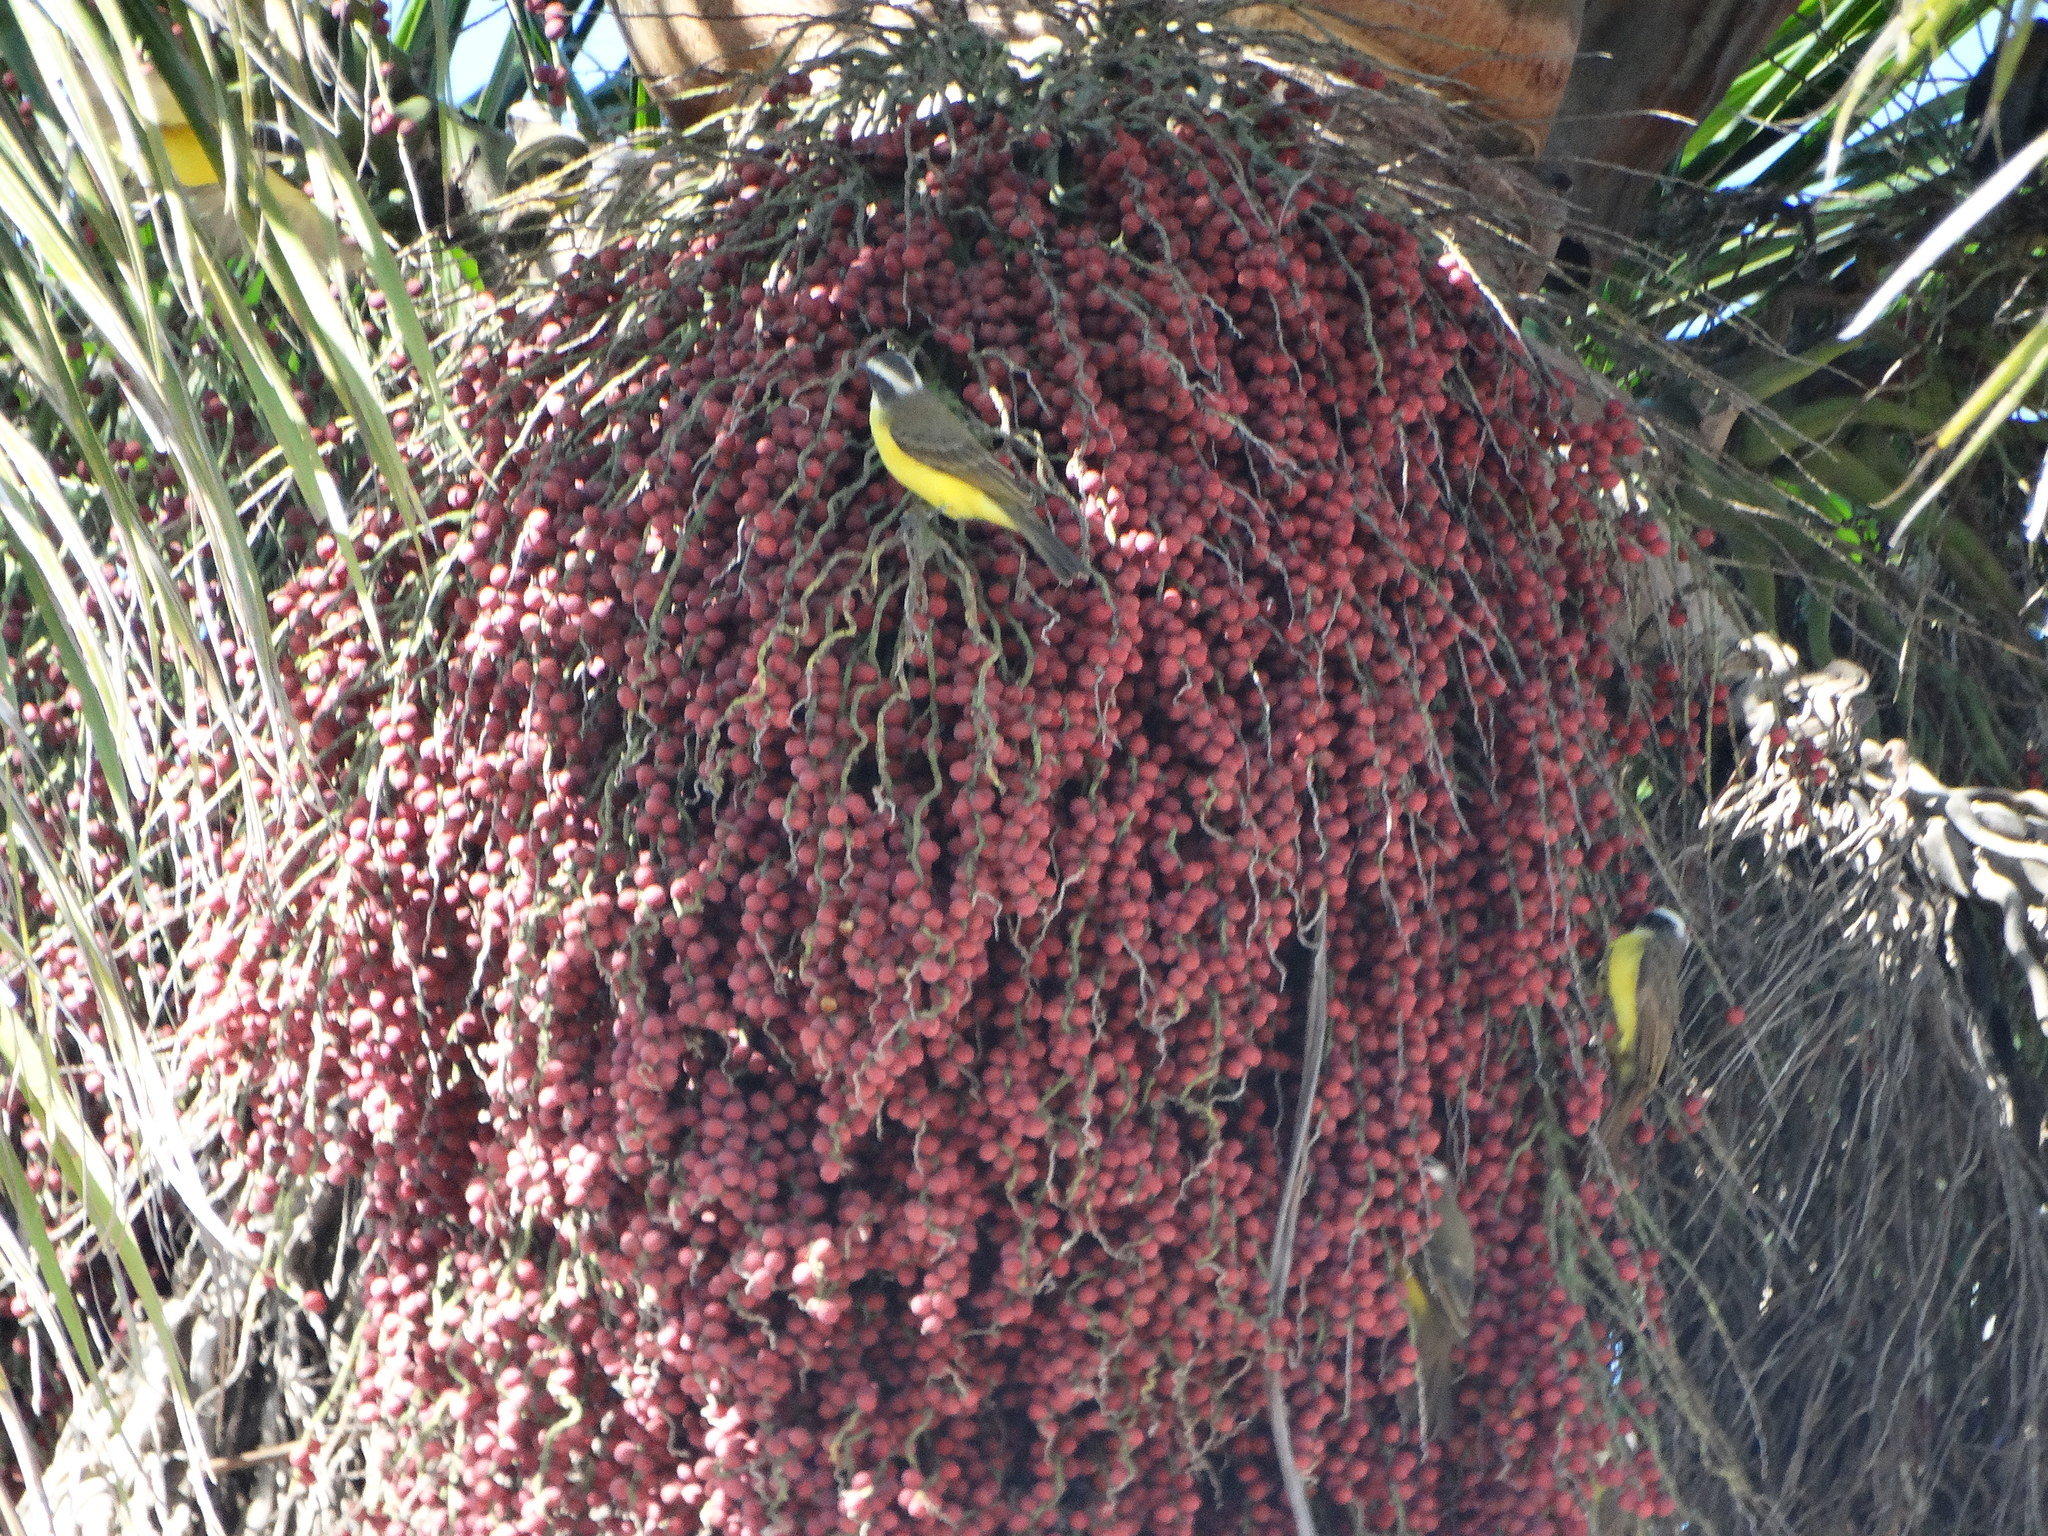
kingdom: Animalia
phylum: Chordata
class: Aves
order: Passeriformes
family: Tyrannidae
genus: Myiozetetes
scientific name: Myiozetetes similis
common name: Social flycatcher
